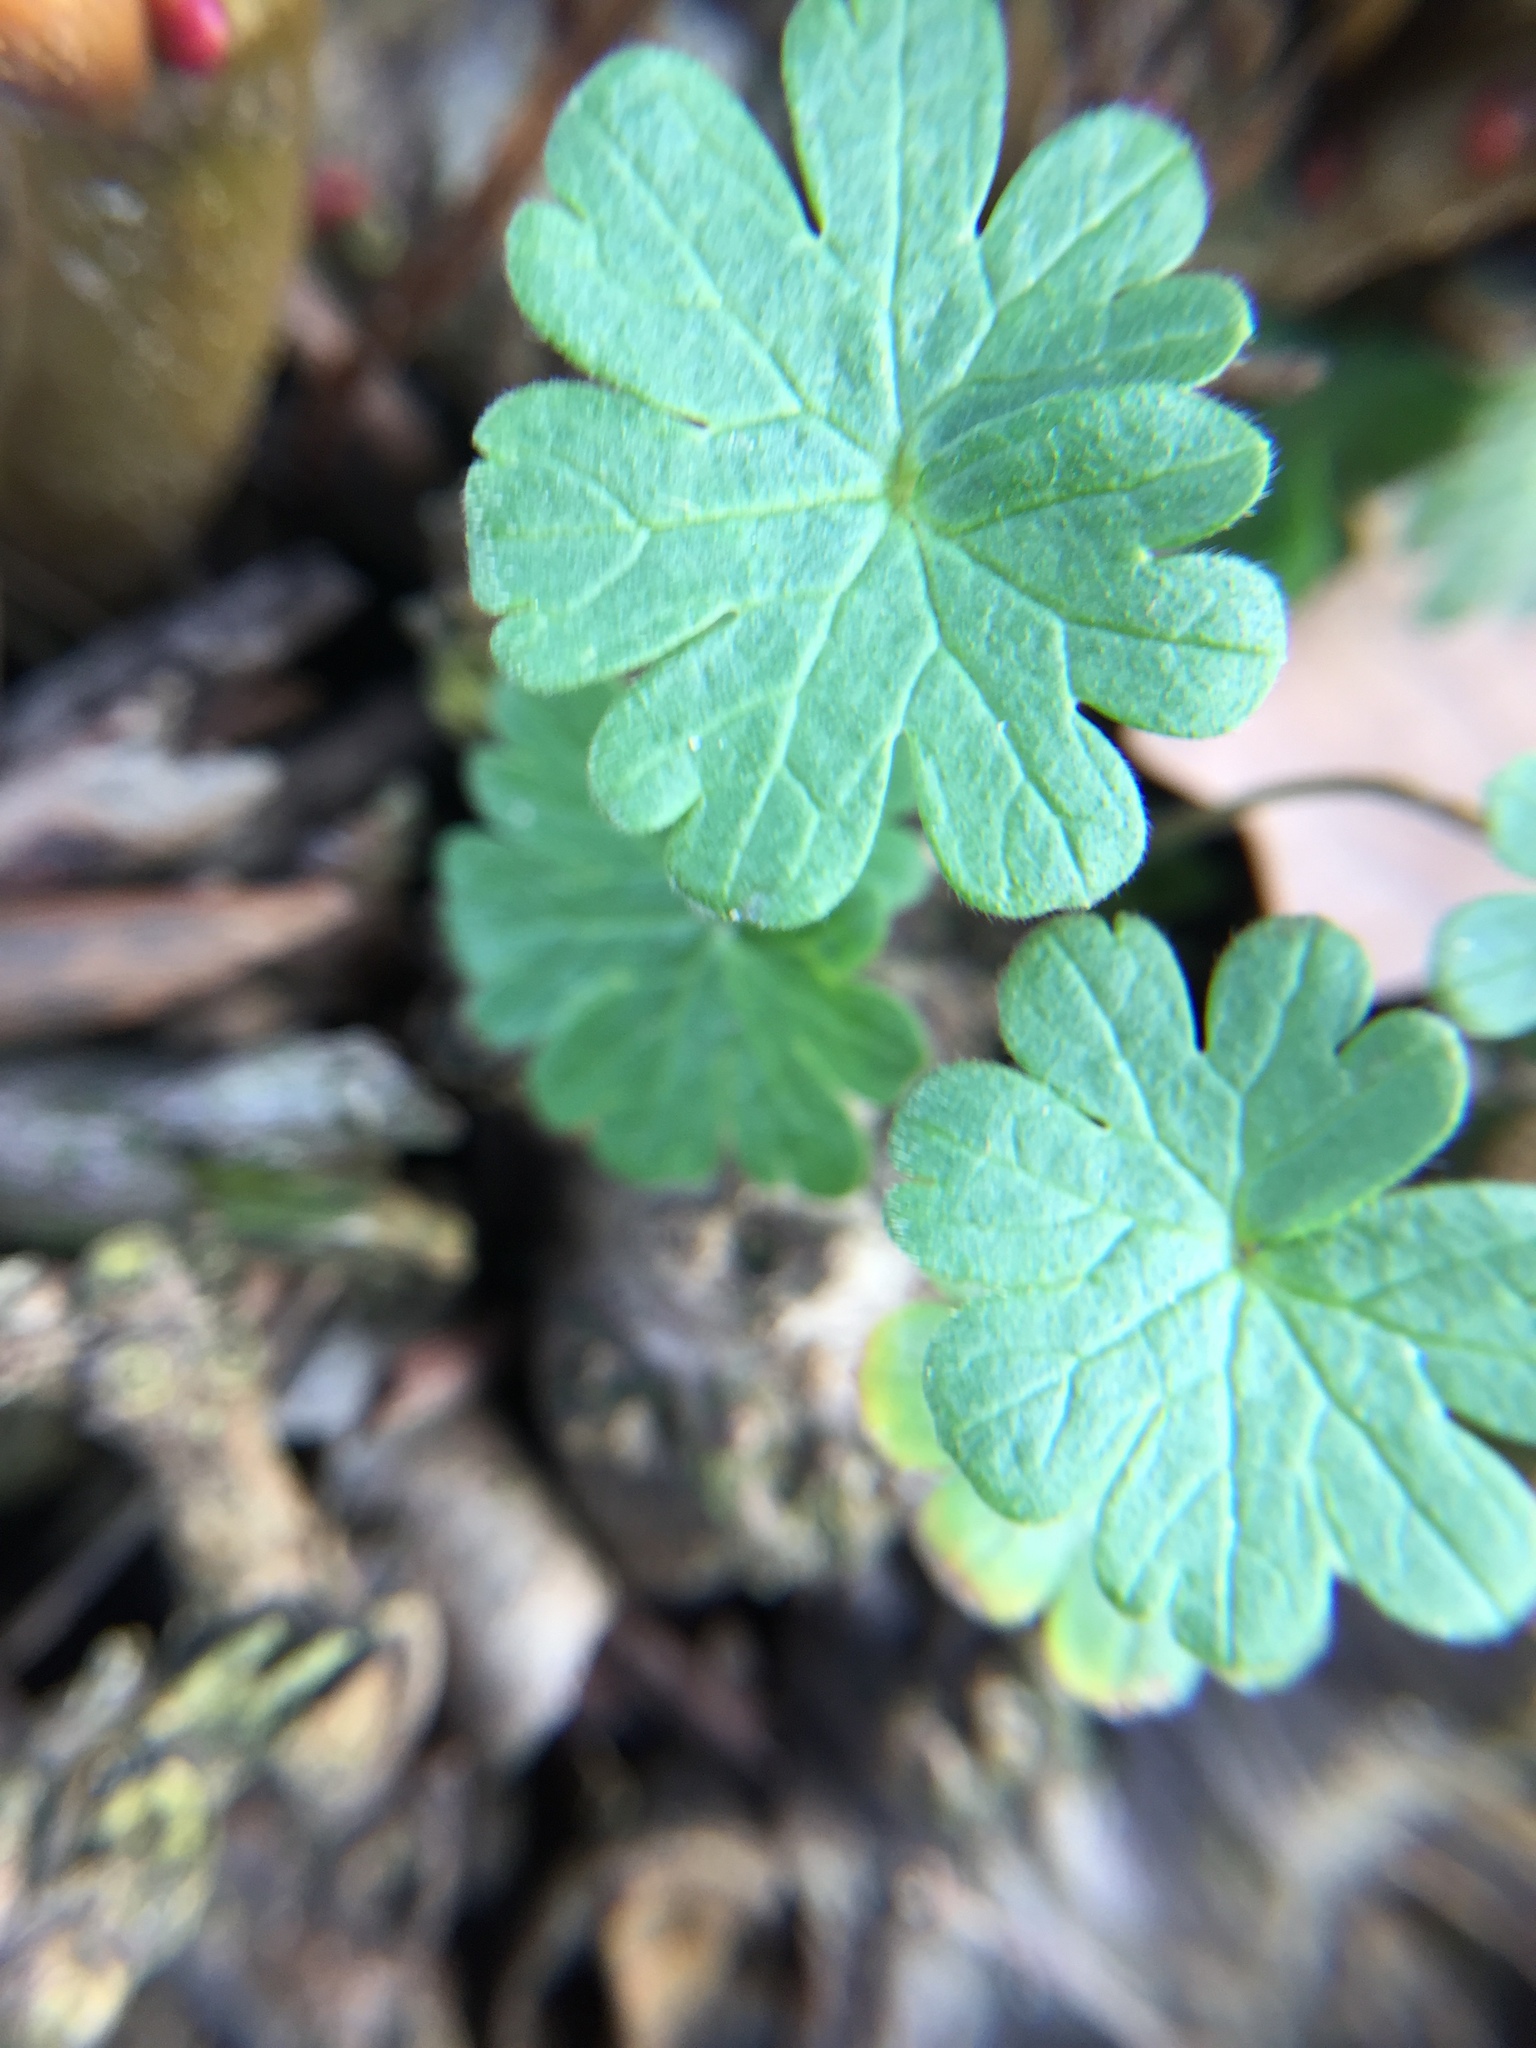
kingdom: Plantae
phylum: Tracheophyta
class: Magnoliopsida
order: Geraniales
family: Geraniaceae
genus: Geranium
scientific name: Geranium molle
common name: Dove's-foot crane's-bill
